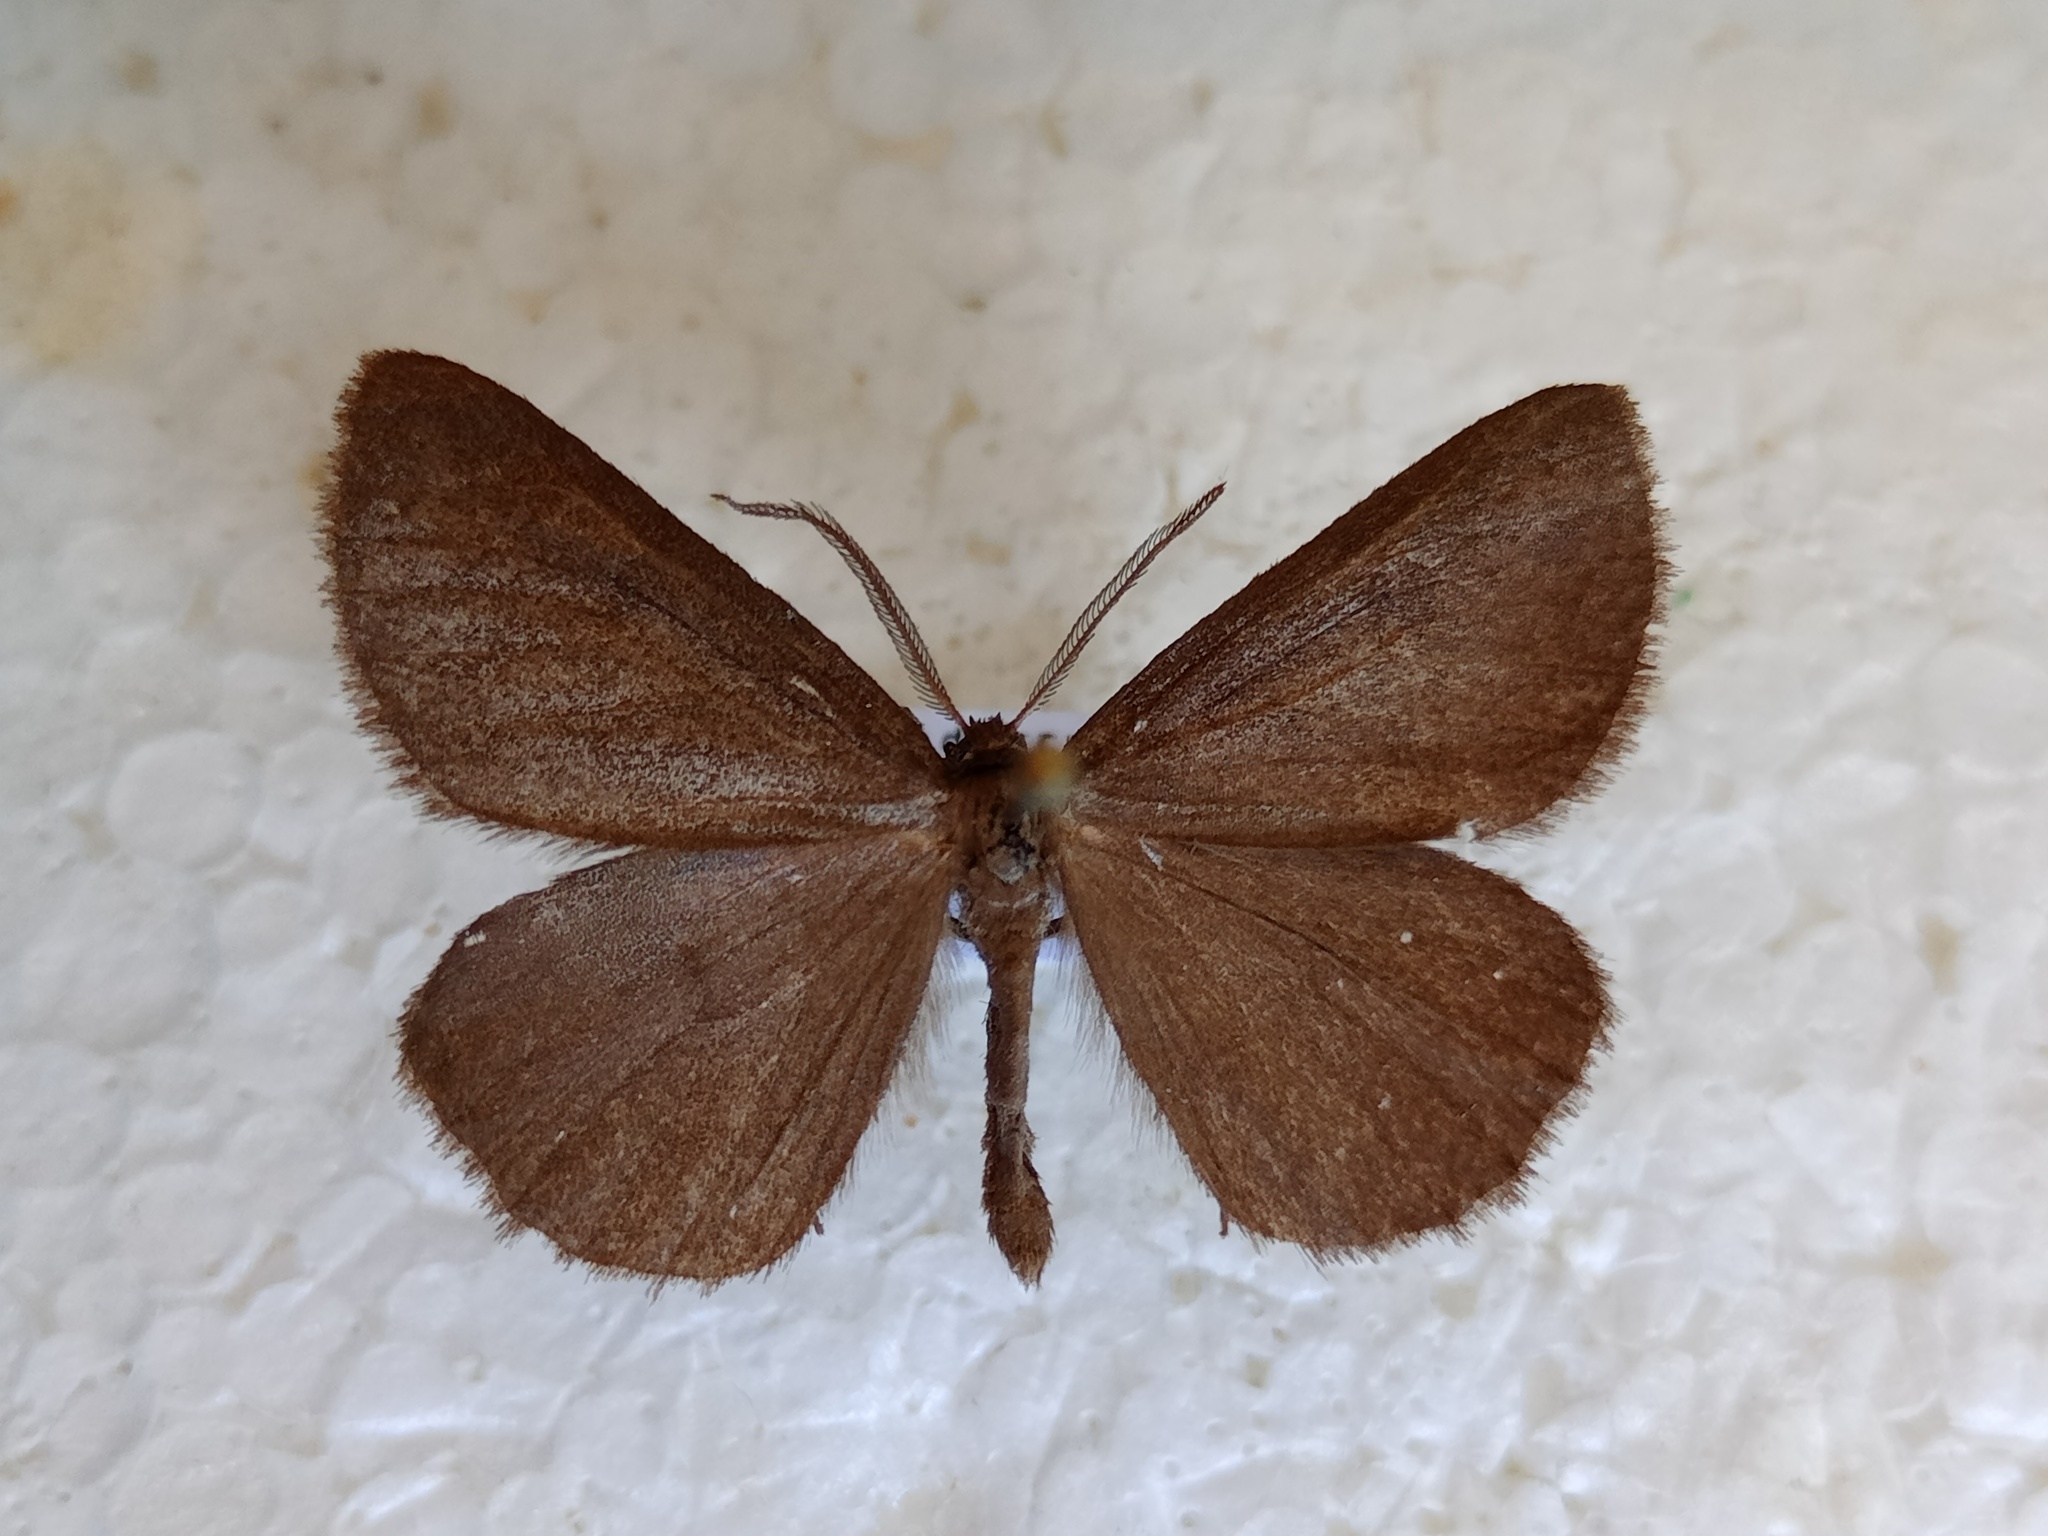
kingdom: Animalia
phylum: Arthropoda
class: Insecta
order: Lepidoptera
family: Geometridae
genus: Crocota
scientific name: Crocota peletieraria
